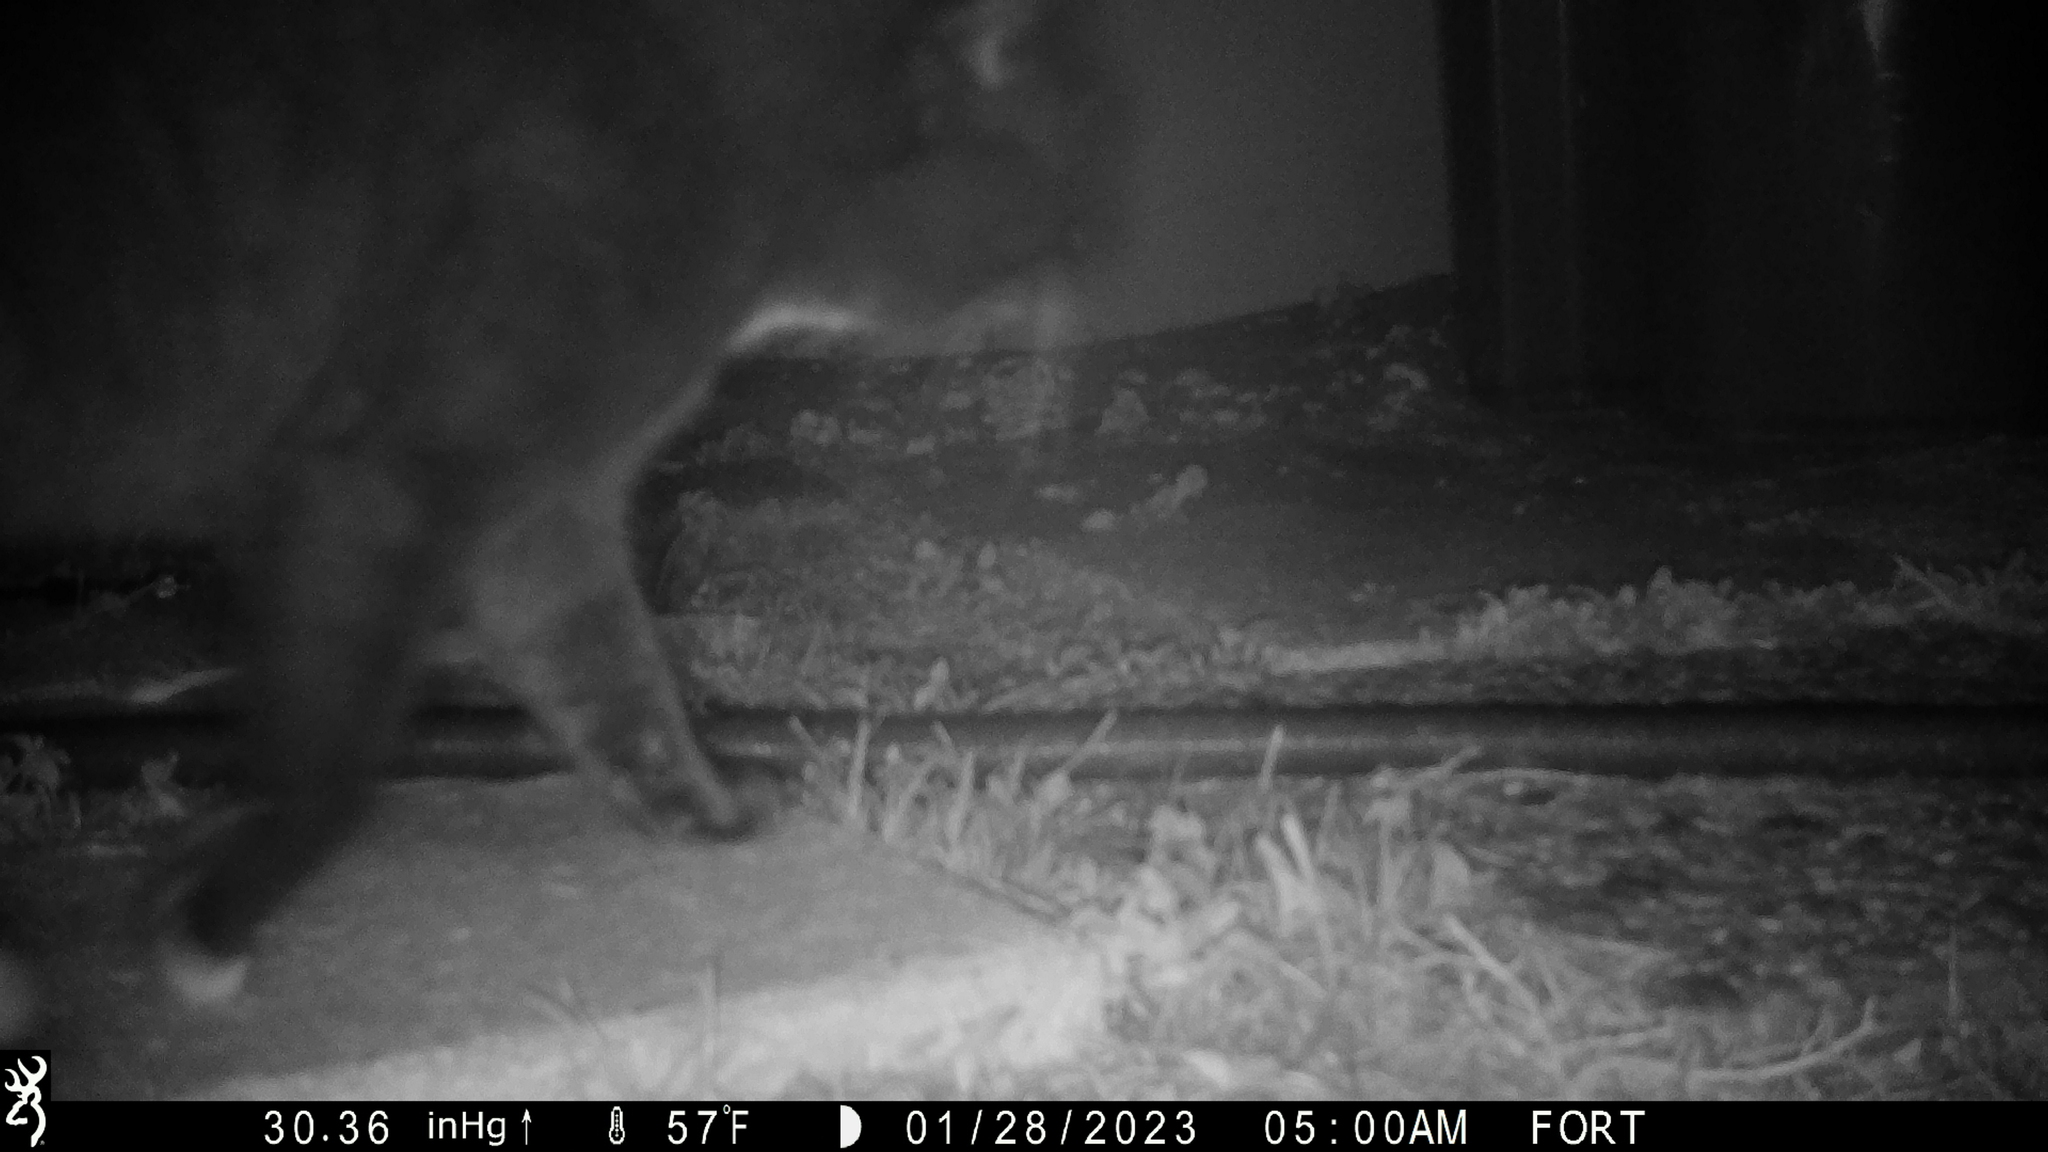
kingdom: Animalia
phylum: Chordata
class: Mammalia
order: Carnivora
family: Felidae
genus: Felis
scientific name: Felis catus
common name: Domestic cat
